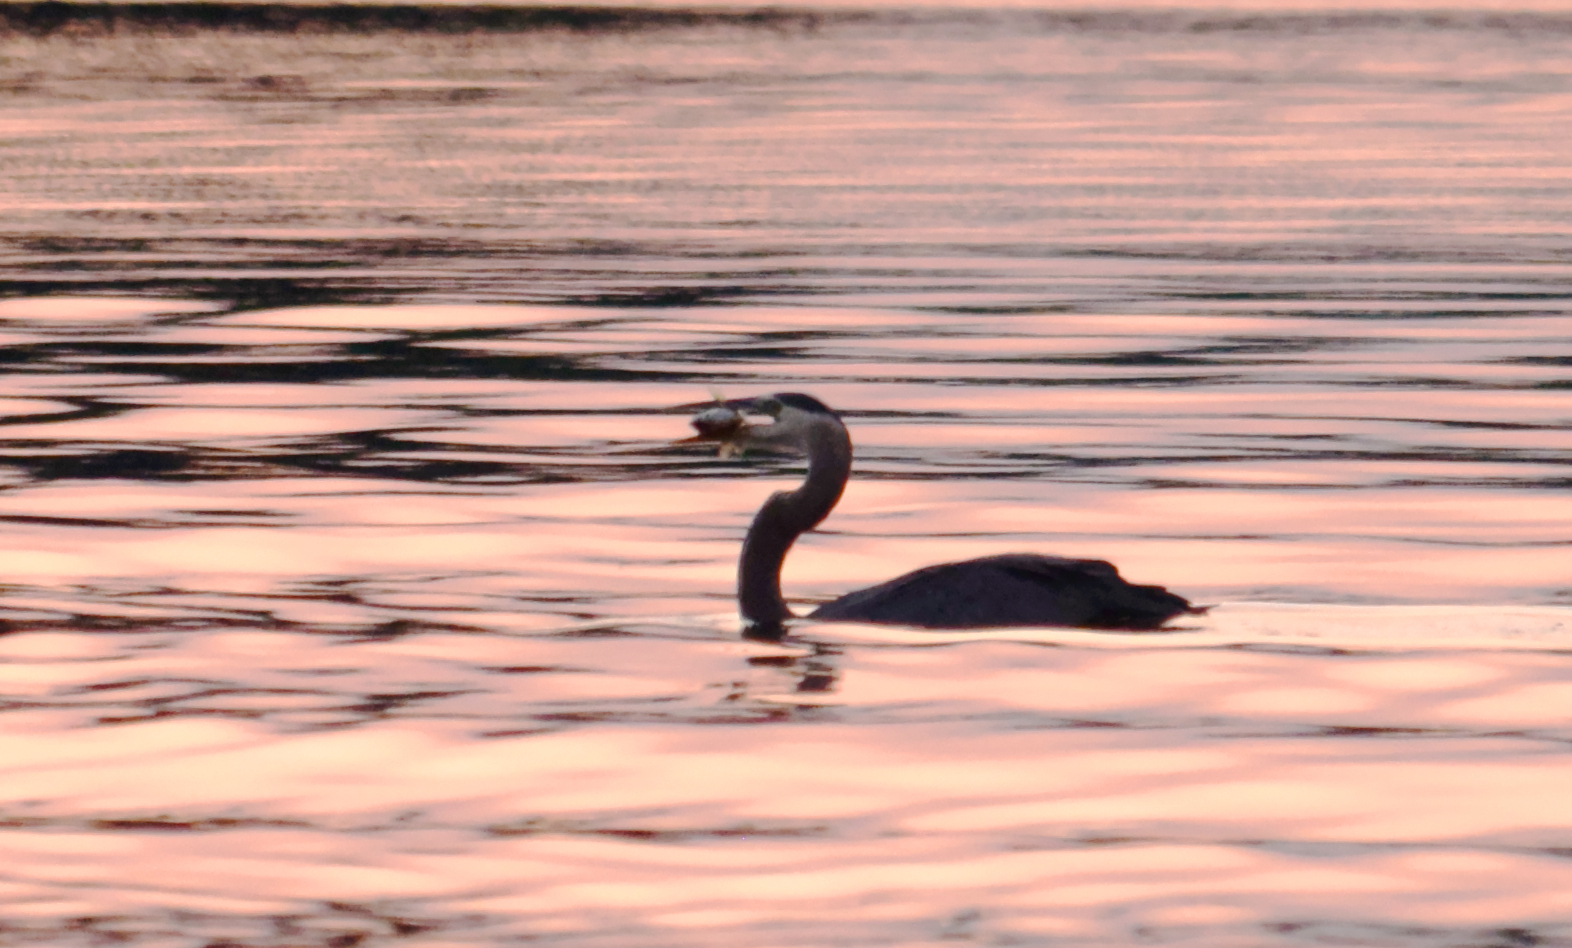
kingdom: Animalia
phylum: Chordata
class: Aves
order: Pelecaniformes
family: Ardeidae
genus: Ardea
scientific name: Ardea herodias
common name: Great blue heron
